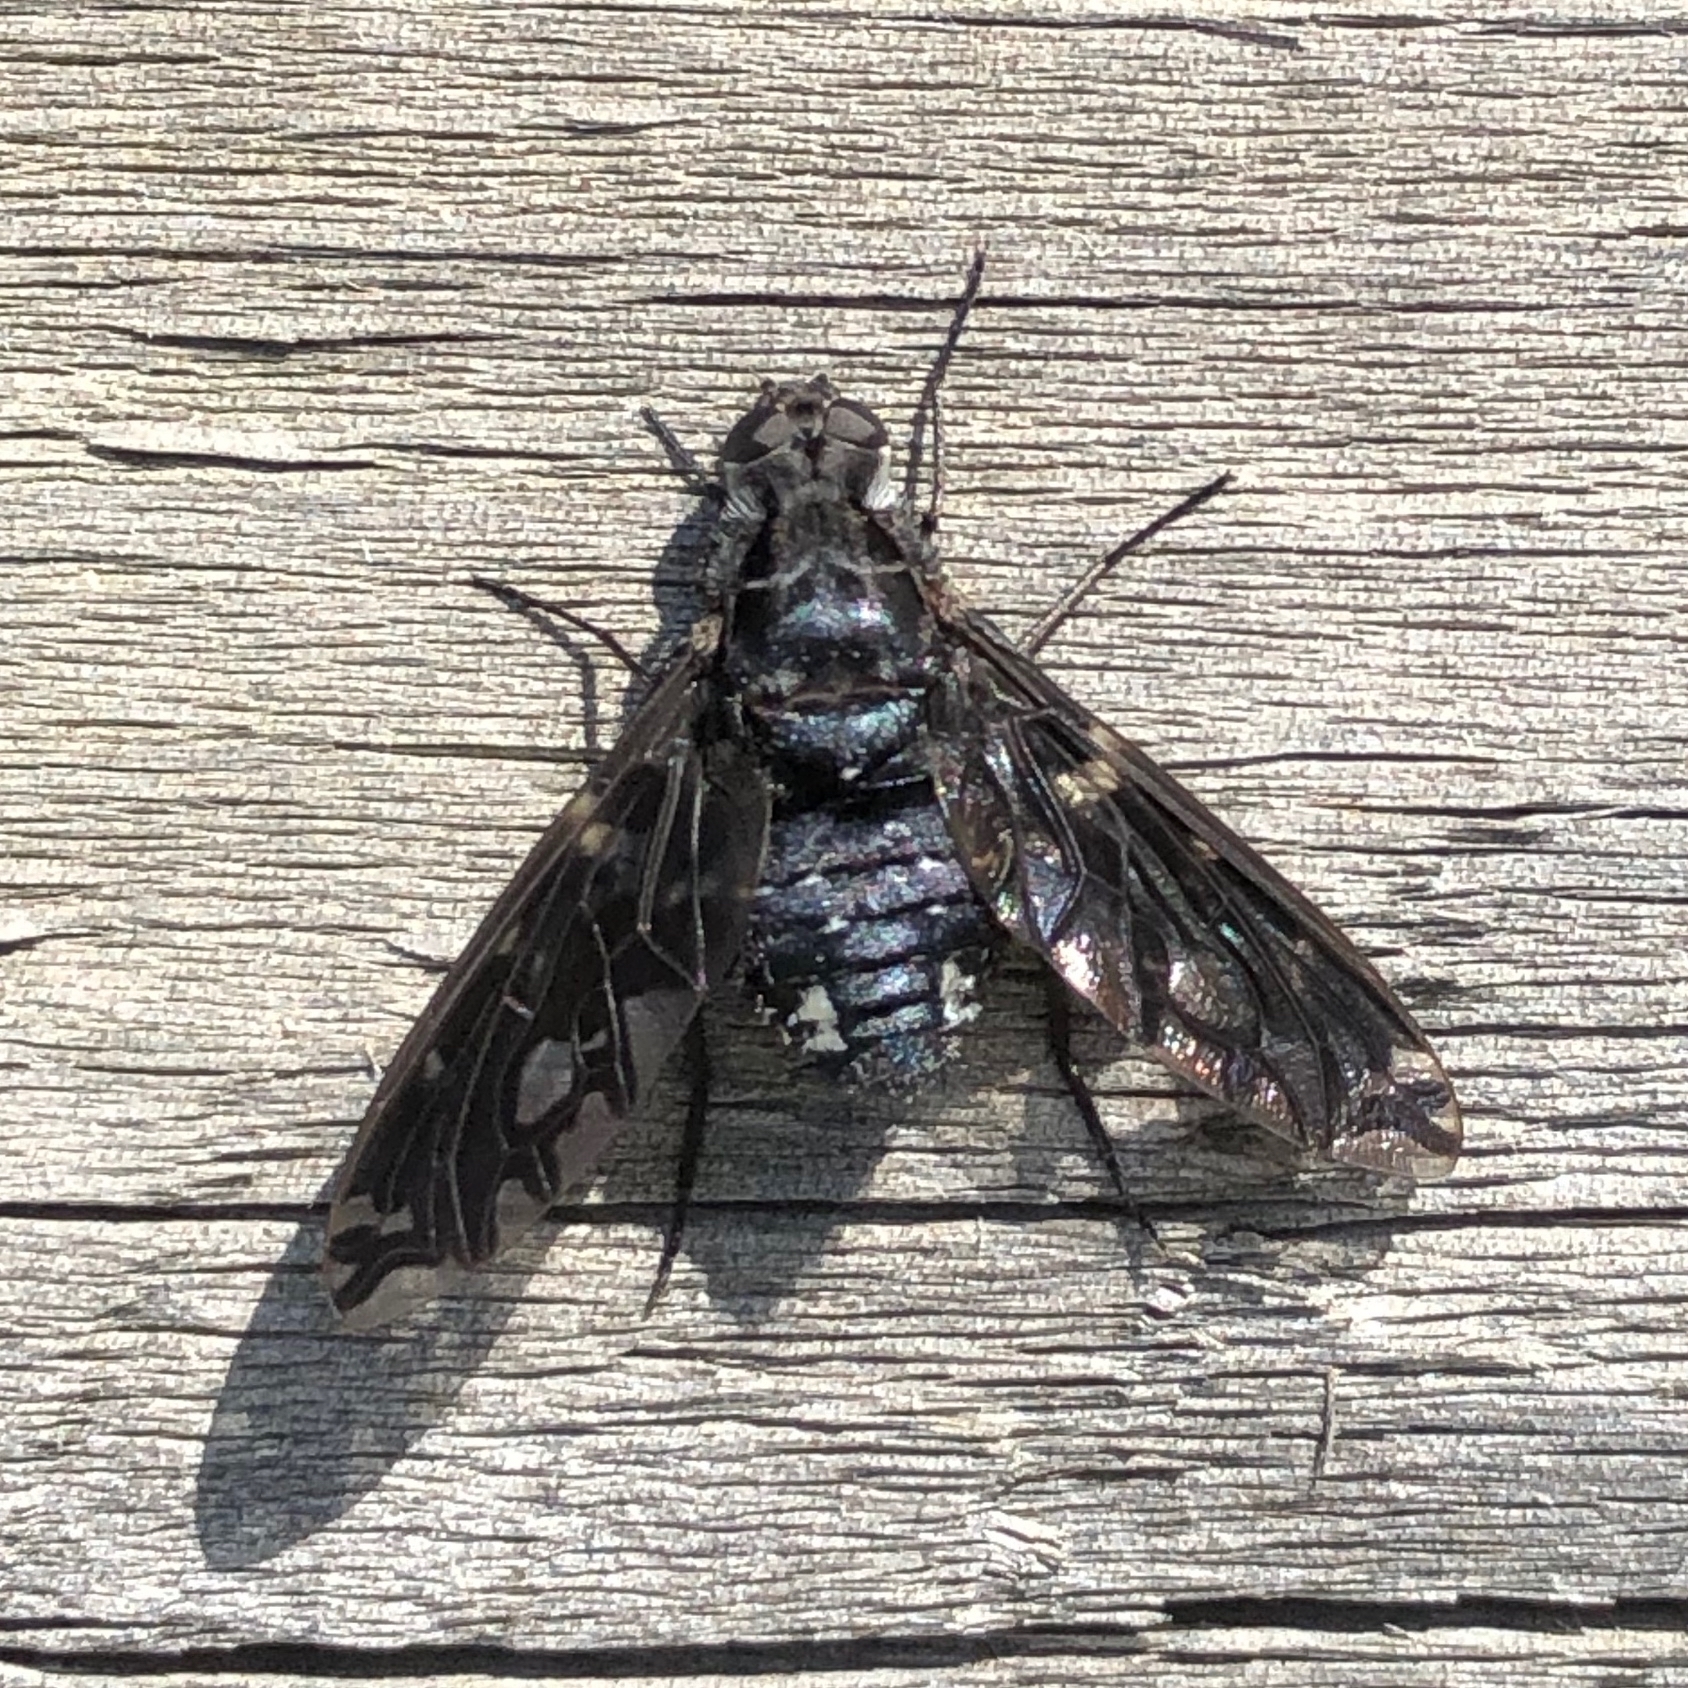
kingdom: Animalia
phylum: Arthropoda
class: Insecta
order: Diptera
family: Bombyliidae
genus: Xenox
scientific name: Xenox tigrinus
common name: Tiger bee fly
